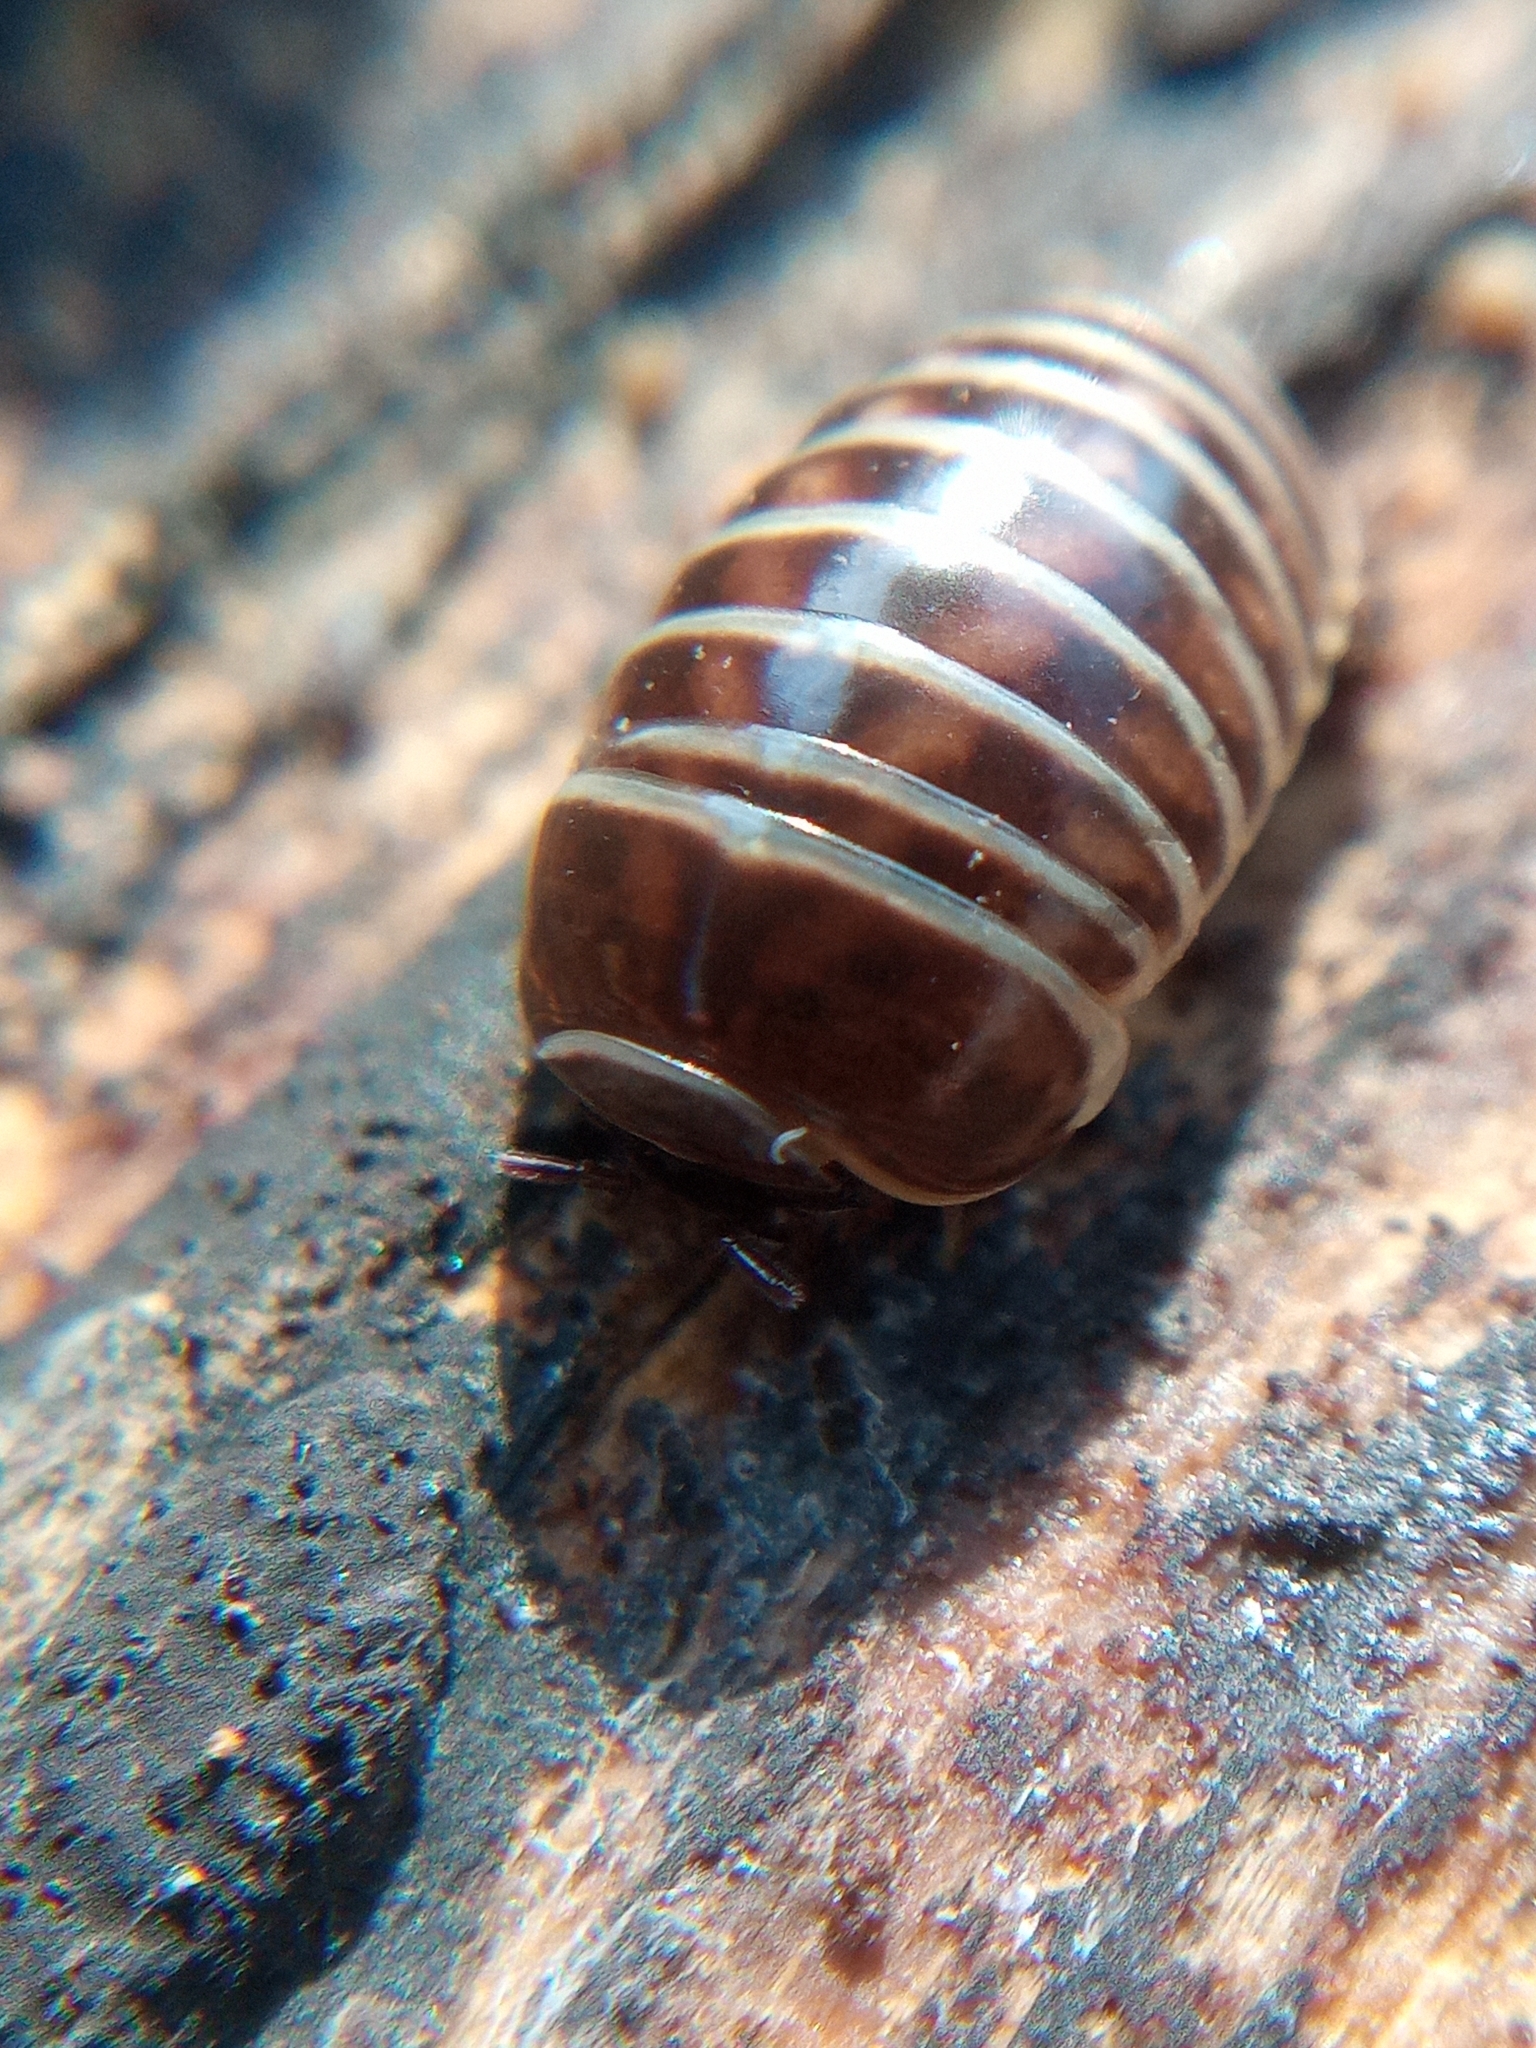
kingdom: Animalia
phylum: Arthropoda
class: Diplopoda
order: Glomerida
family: Glomeridae
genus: Glomeris
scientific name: Glomeris marginata
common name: Bordered pill millipede
